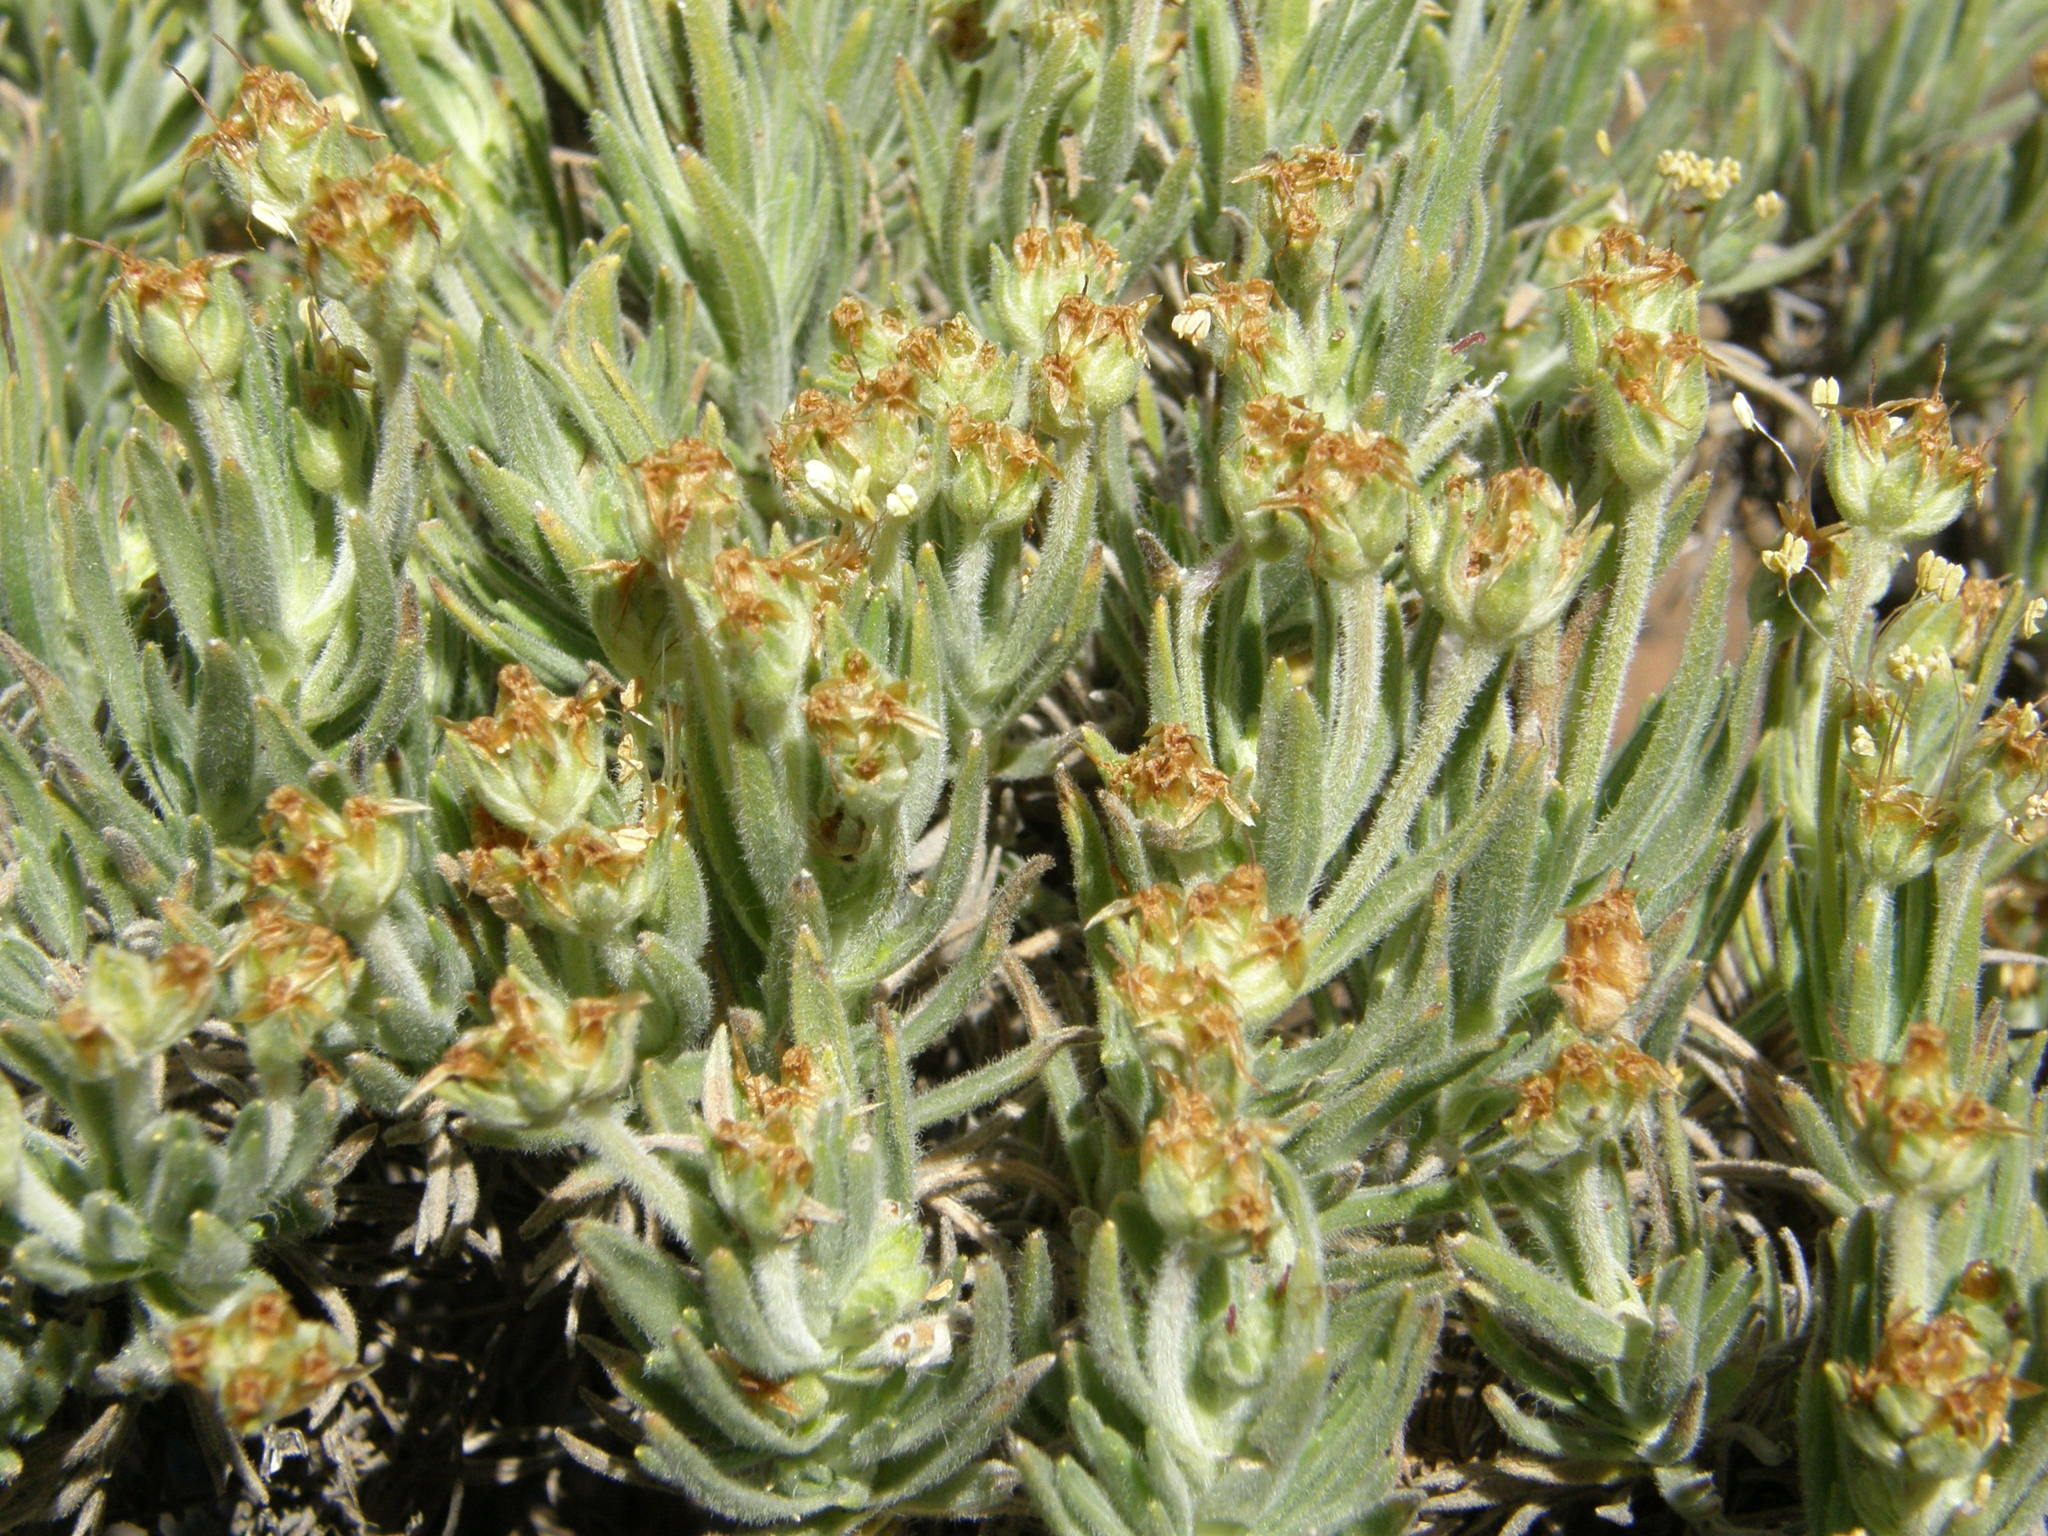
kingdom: Plantae
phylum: Tracheophyta
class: Magnoliopsida
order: Lamiales
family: Plantaginaceae
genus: Plantago
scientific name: Plantago webbii
